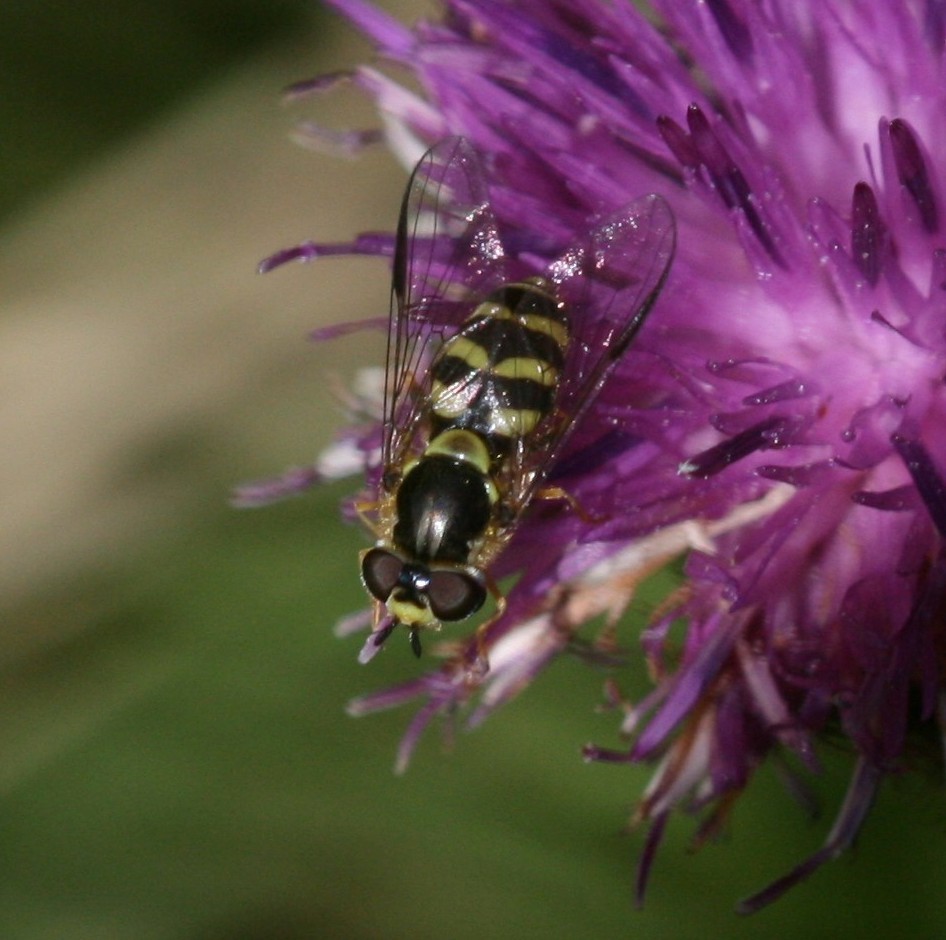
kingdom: Animalia
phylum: Arthropoda
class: Insecta
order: Diptera
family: Syrphidae
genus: Dasysyrphus
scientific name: Dasysyrphus albostriatus
